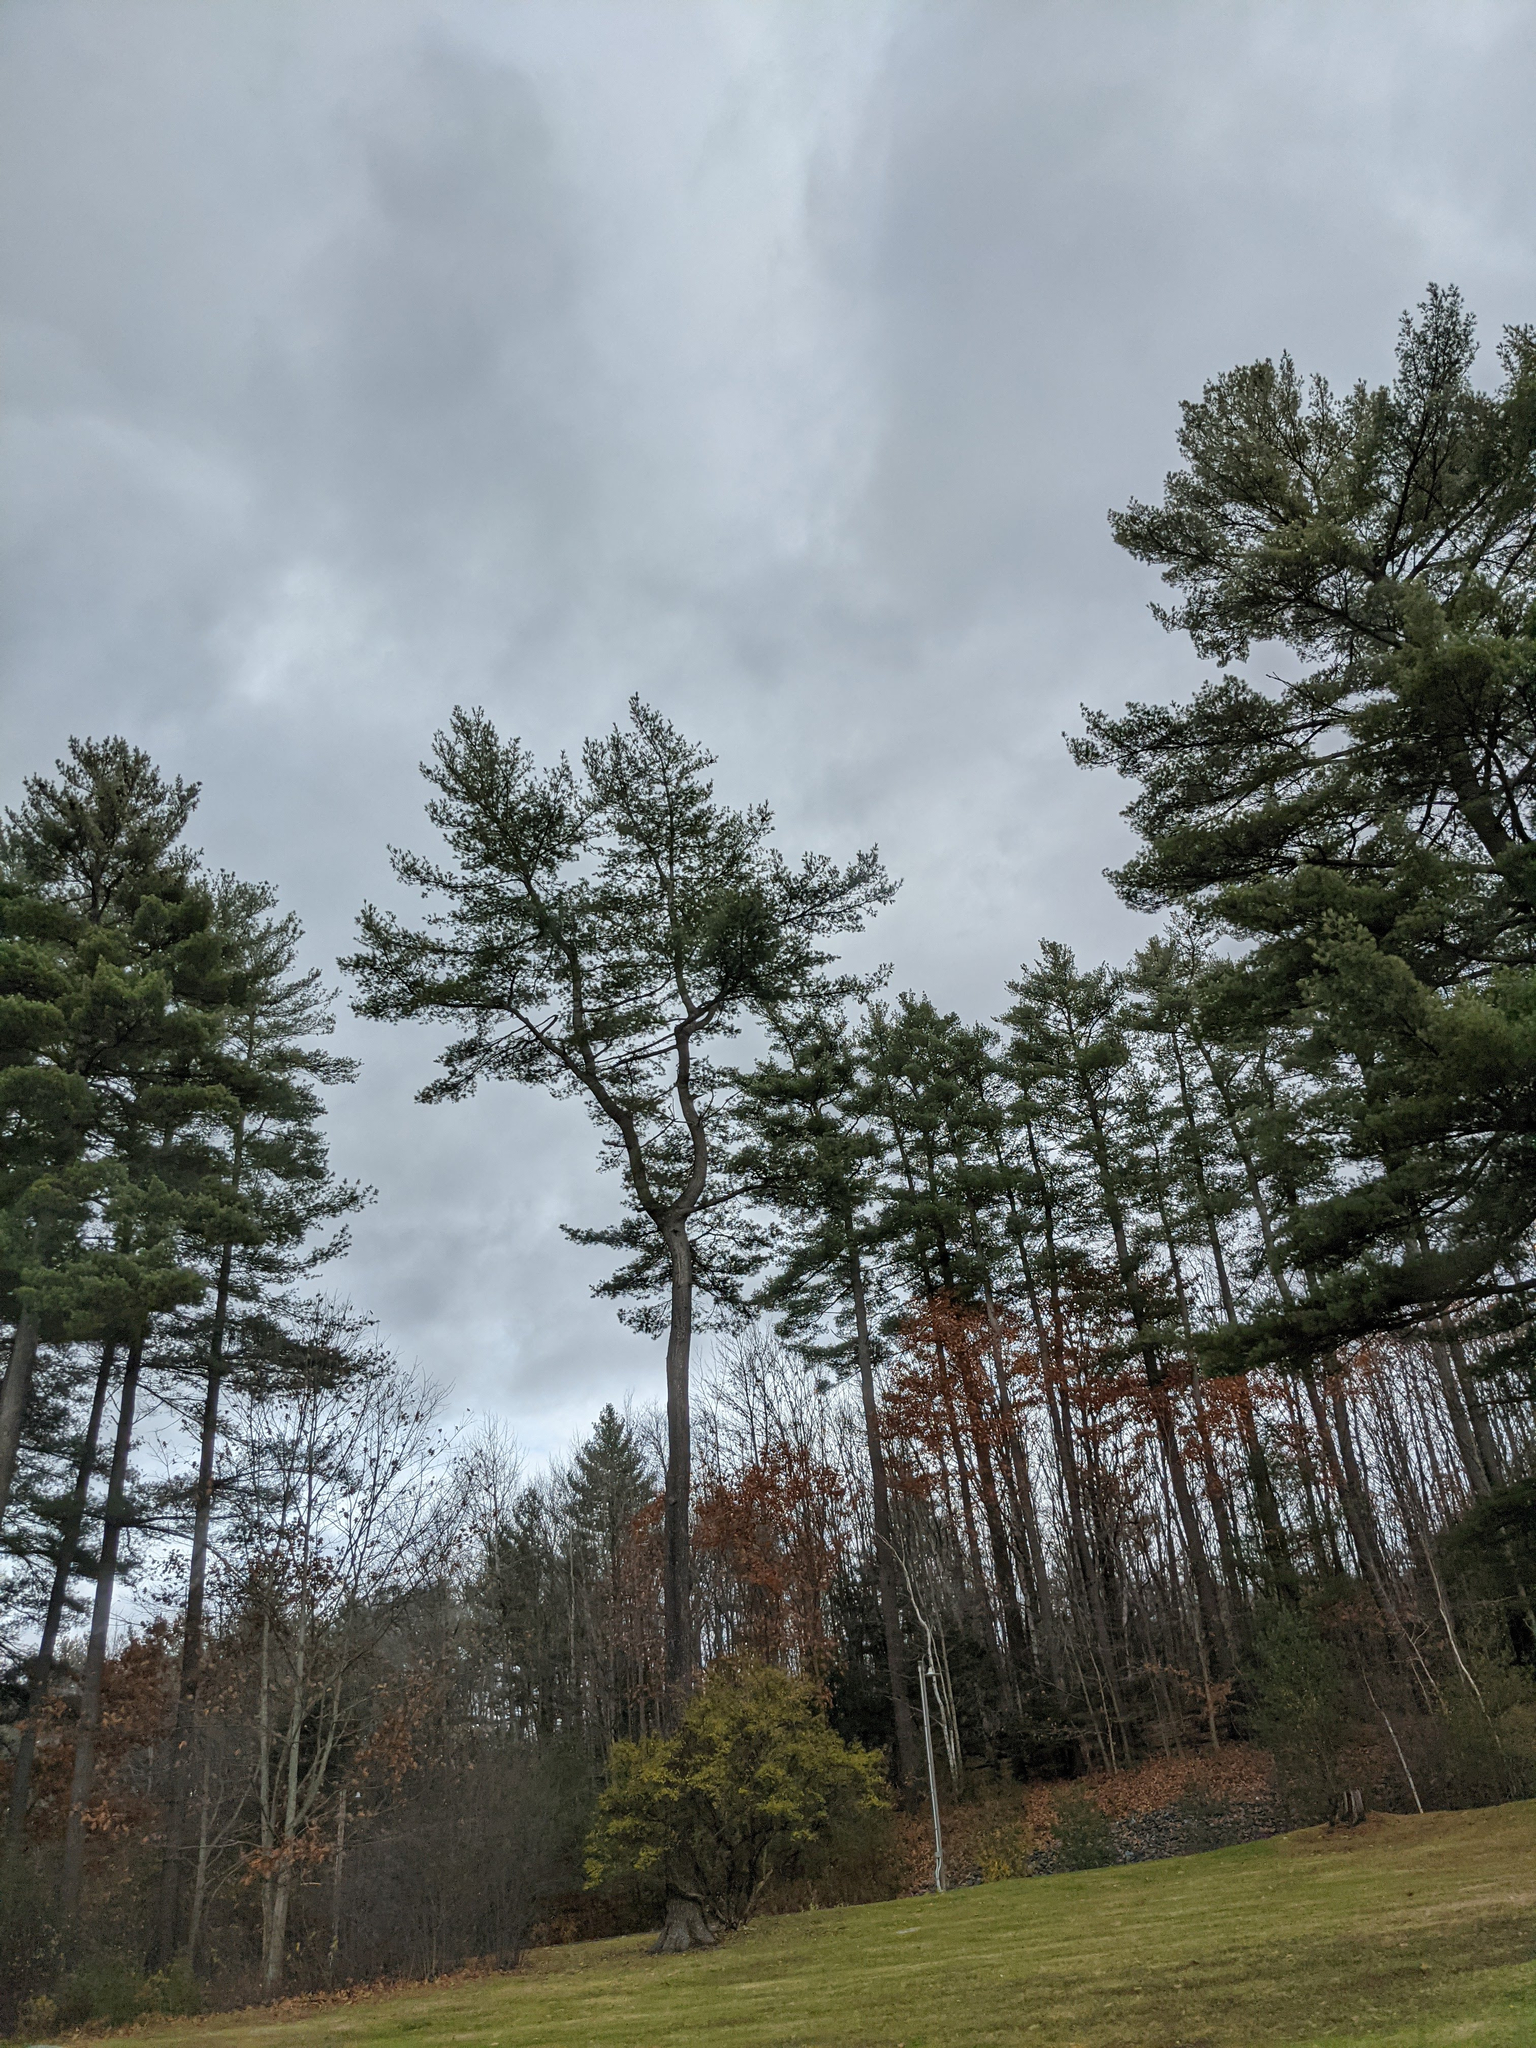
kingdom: Plantae
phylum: Tracheophyta
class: Pinopsida
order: Pinales
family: Pinaceae
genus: Pinus
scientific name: Pinus strobus
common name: Weymouth pine
